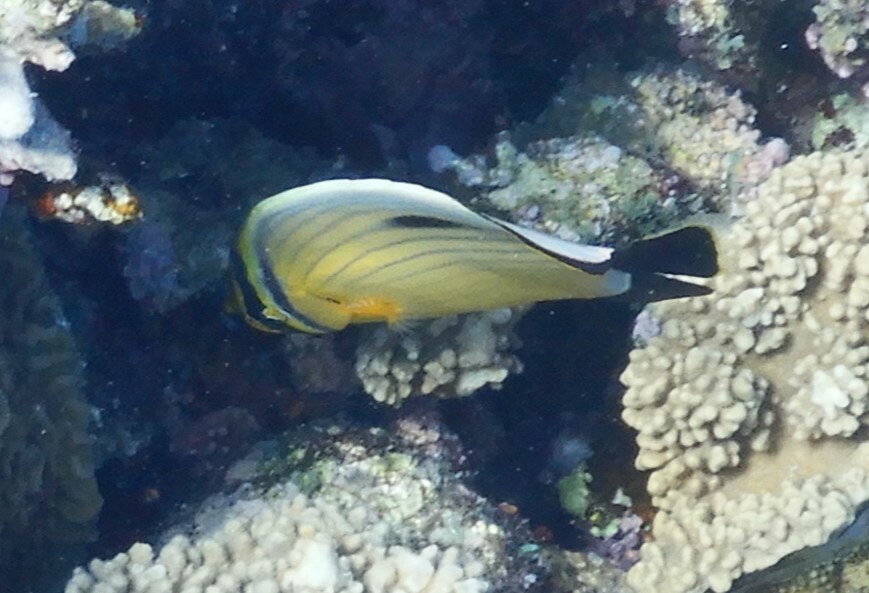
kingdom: Animalia
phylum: Chordata
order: Perciformes
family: Chaetodontidae
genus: Chaetodon
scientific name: Chaetodon austriacus
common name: Exquisite butterflyfish
